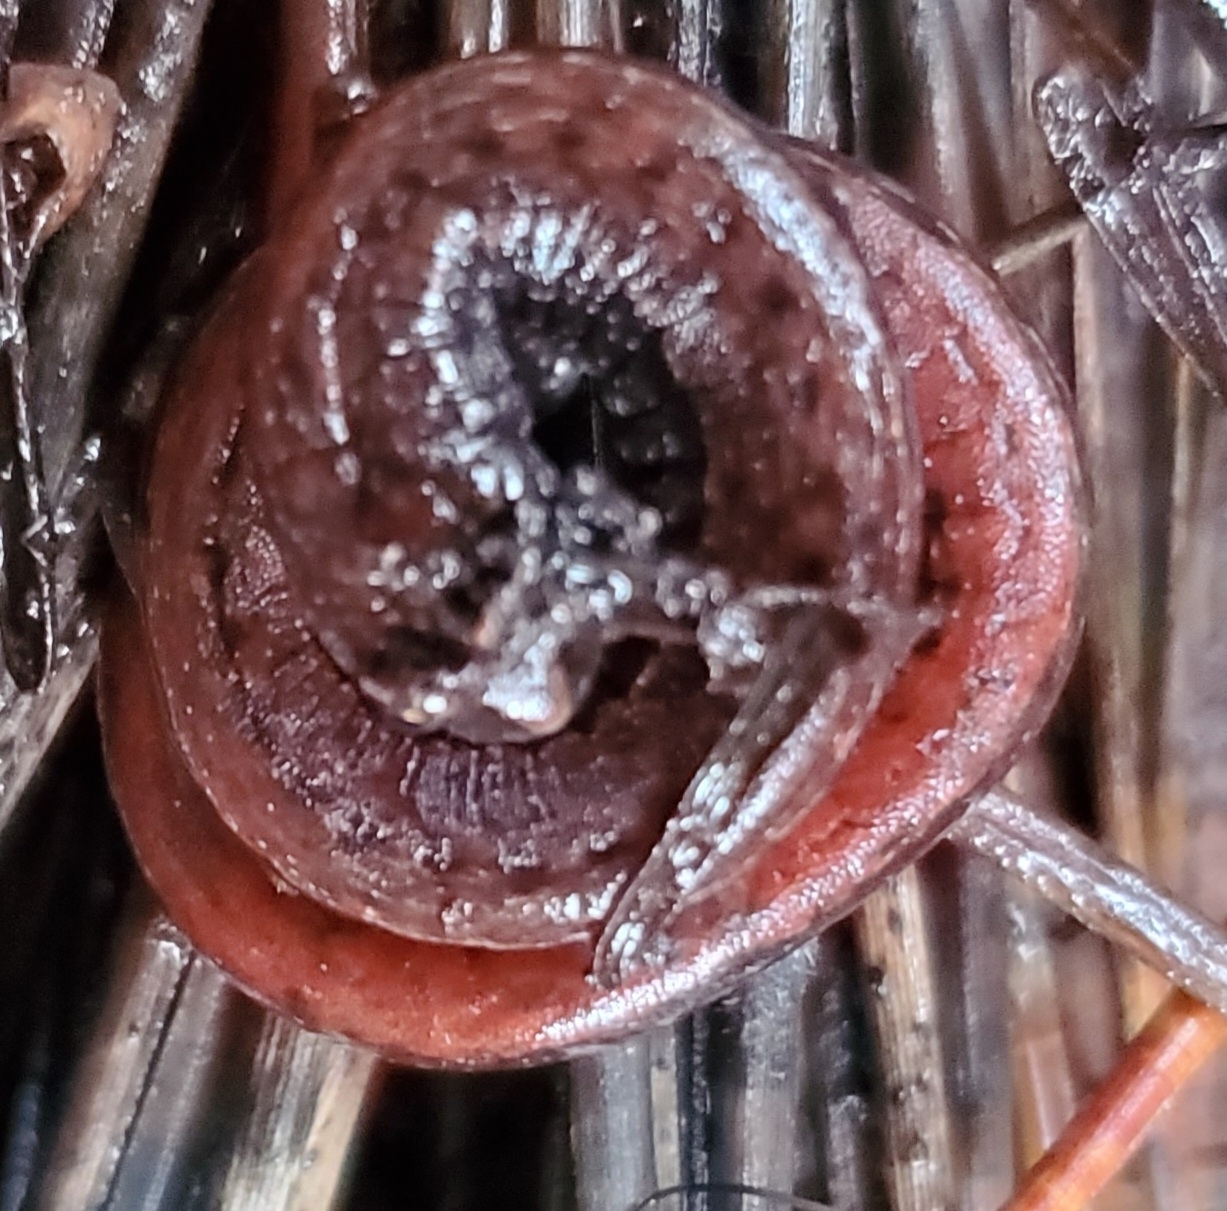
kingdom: Animalia
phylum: Chordata
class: Amphibia
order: Caudata
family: Plethodontidae
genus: Batrachoseps
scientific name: Batrachoseps attenuatus
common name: California slender salamander
